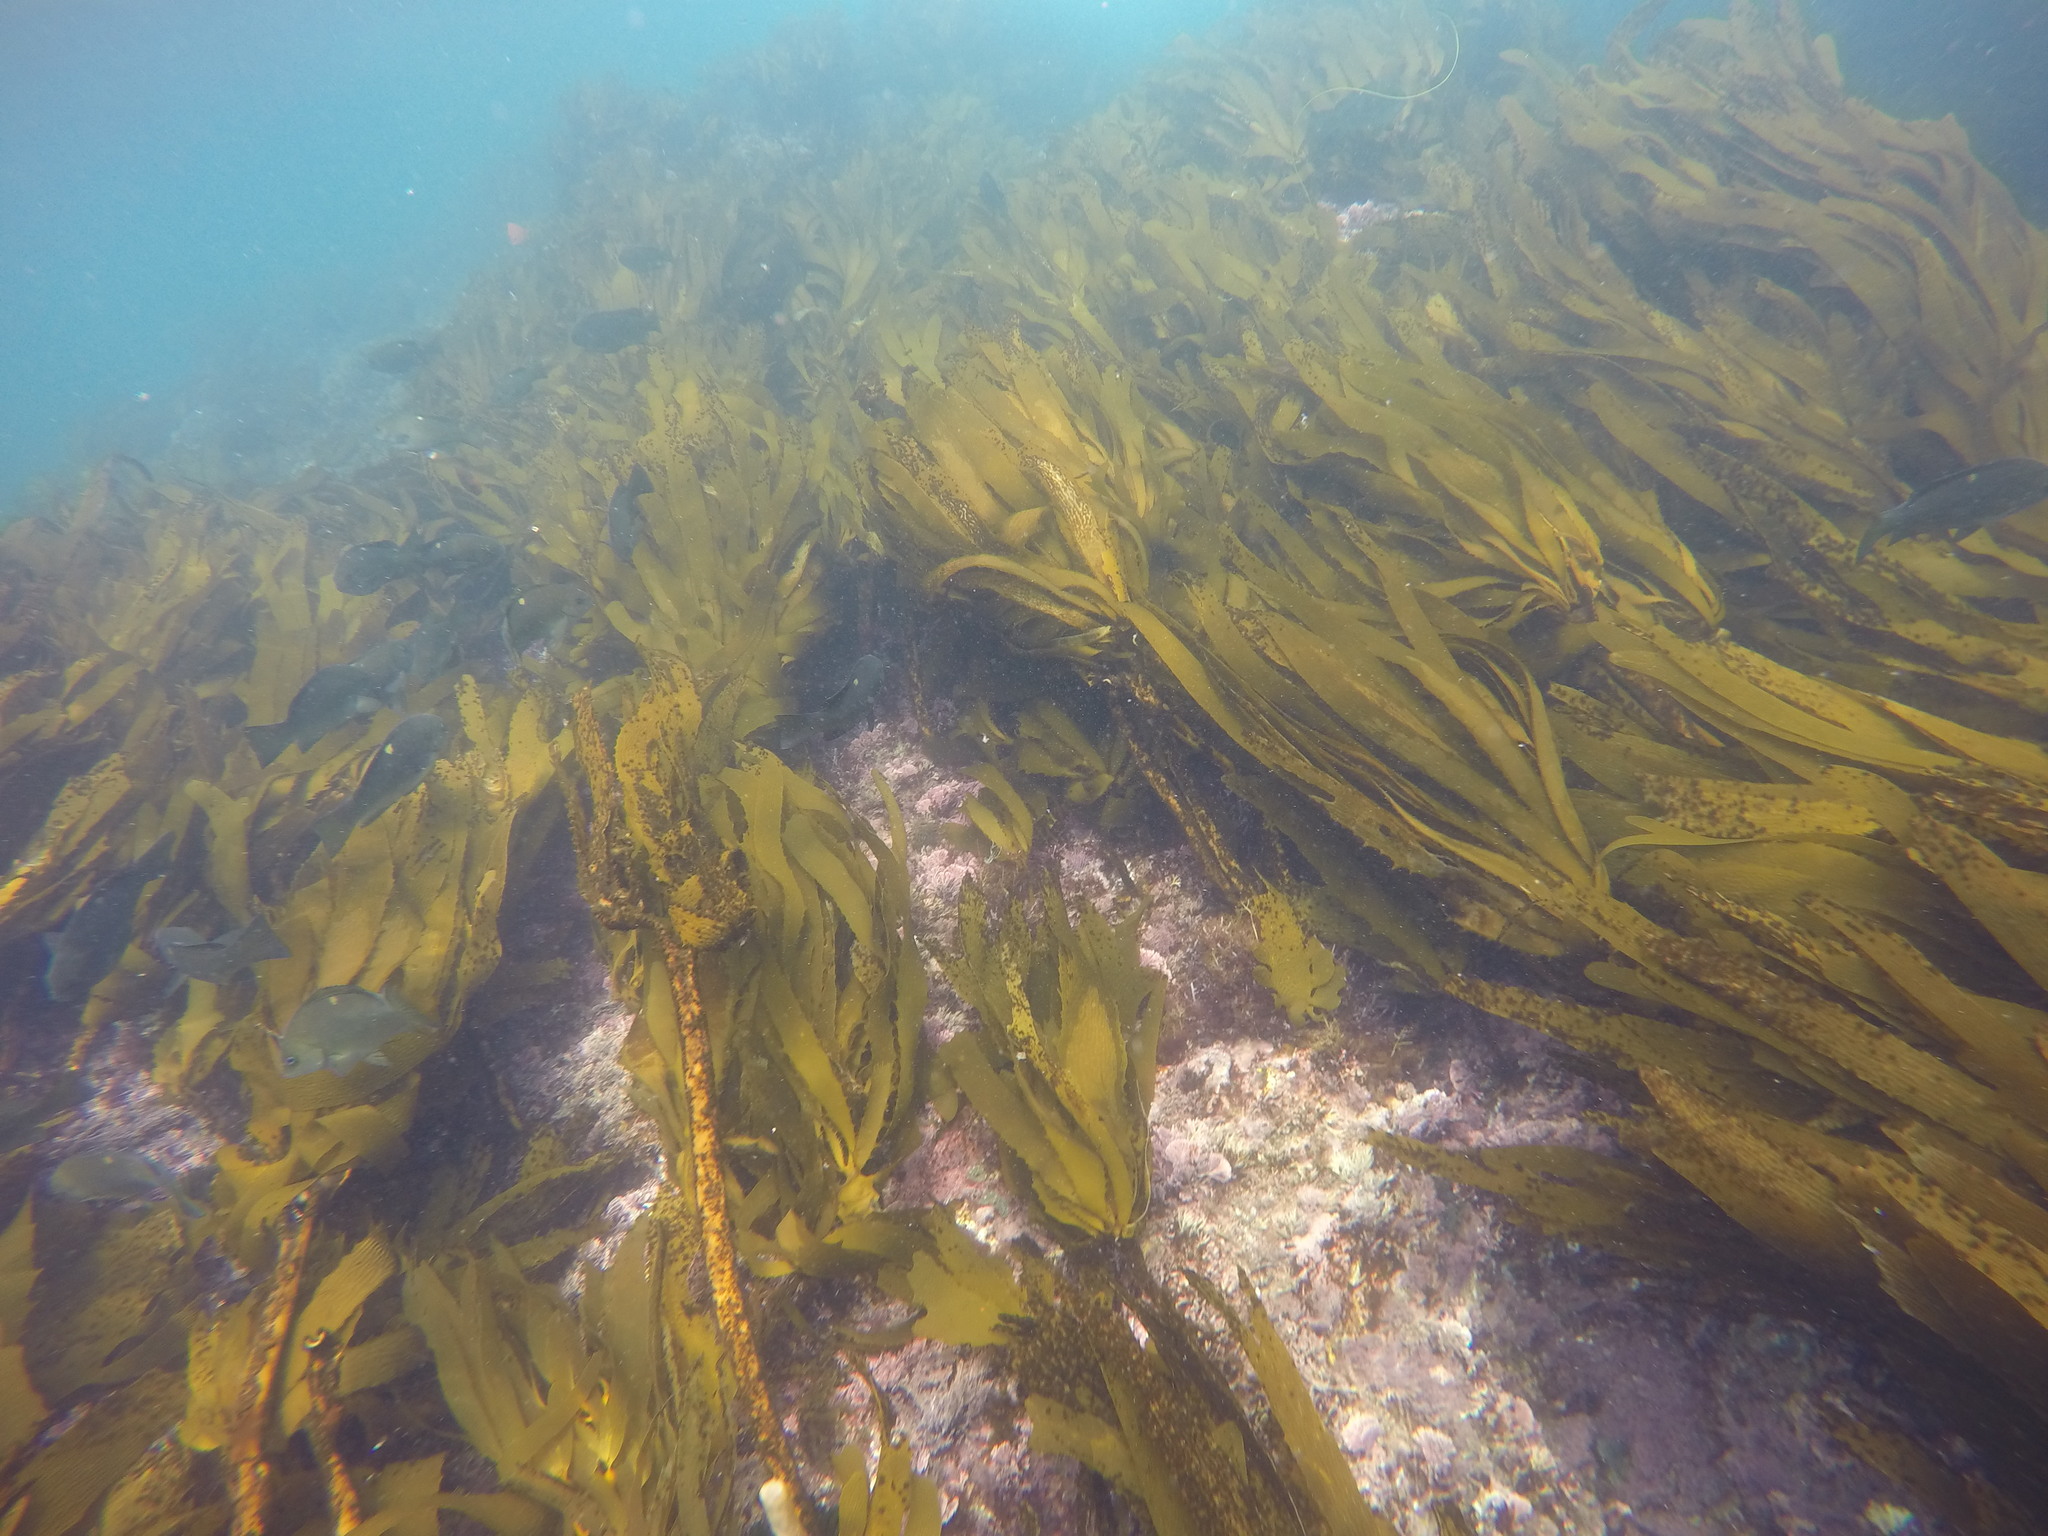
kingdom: Chromista
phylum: Ochrophyta
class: Phaeophyceae
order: Laminariales
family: Lessoniaceae
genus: Eisenia
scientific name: Eisenia arborea
